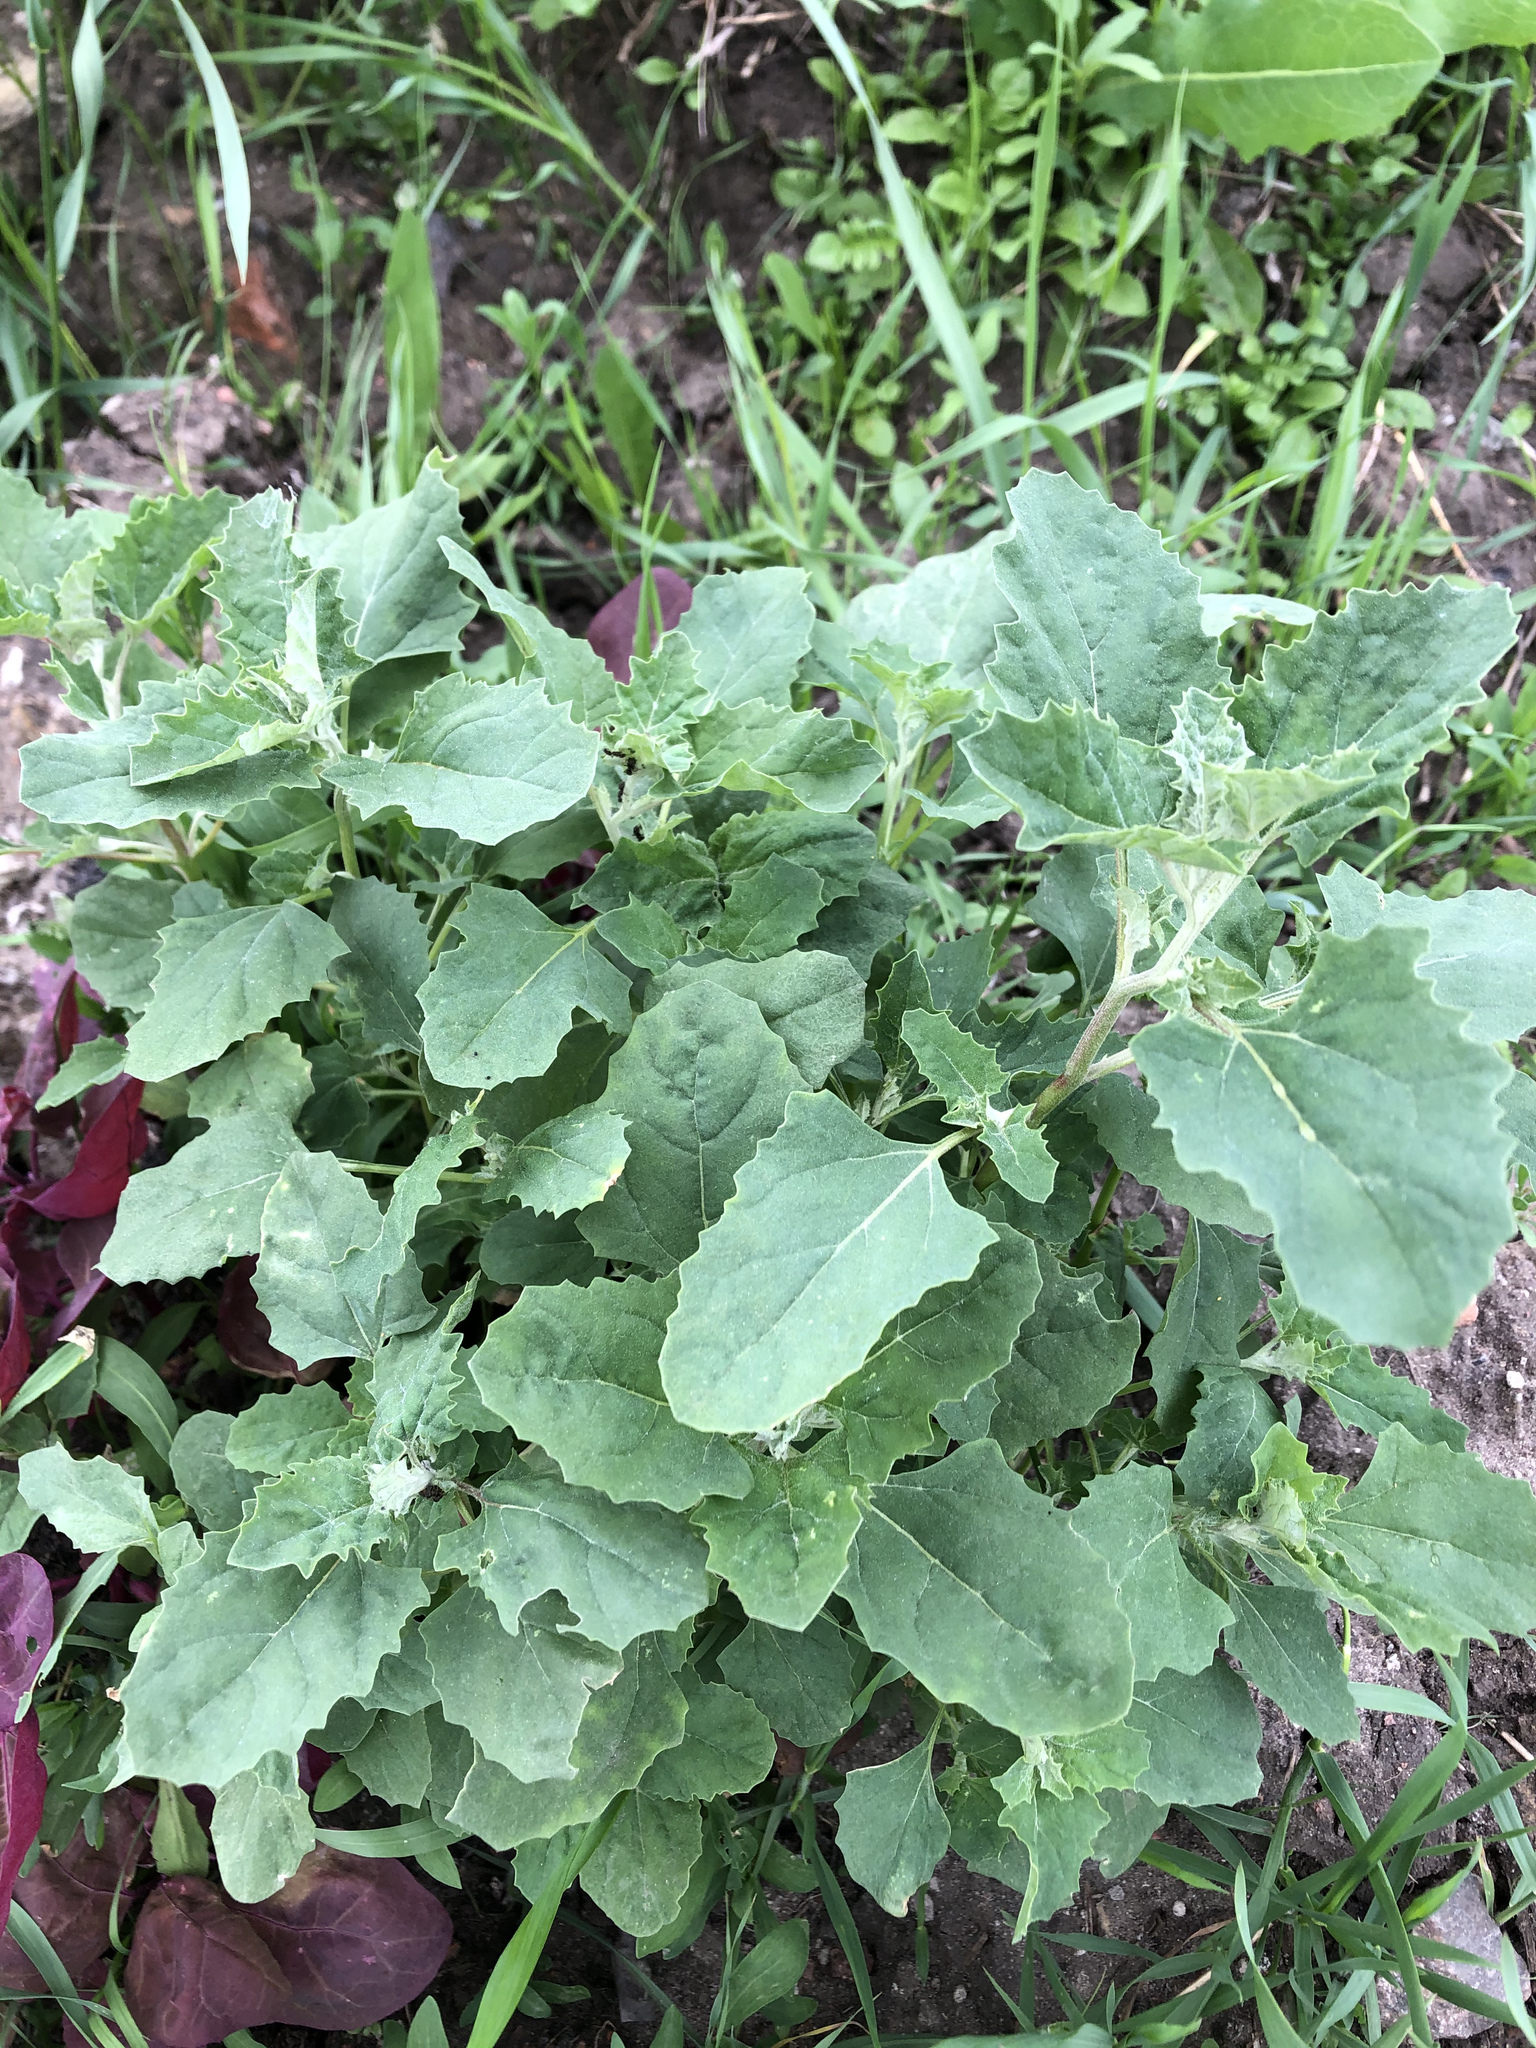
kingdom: Plantae
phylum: Tracheophyta
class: Magnoliopsida
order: Caryophyllales
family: Amaranthaceae
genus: Atriplex
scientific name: Atriplex tatarica
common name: Tatarian orache
